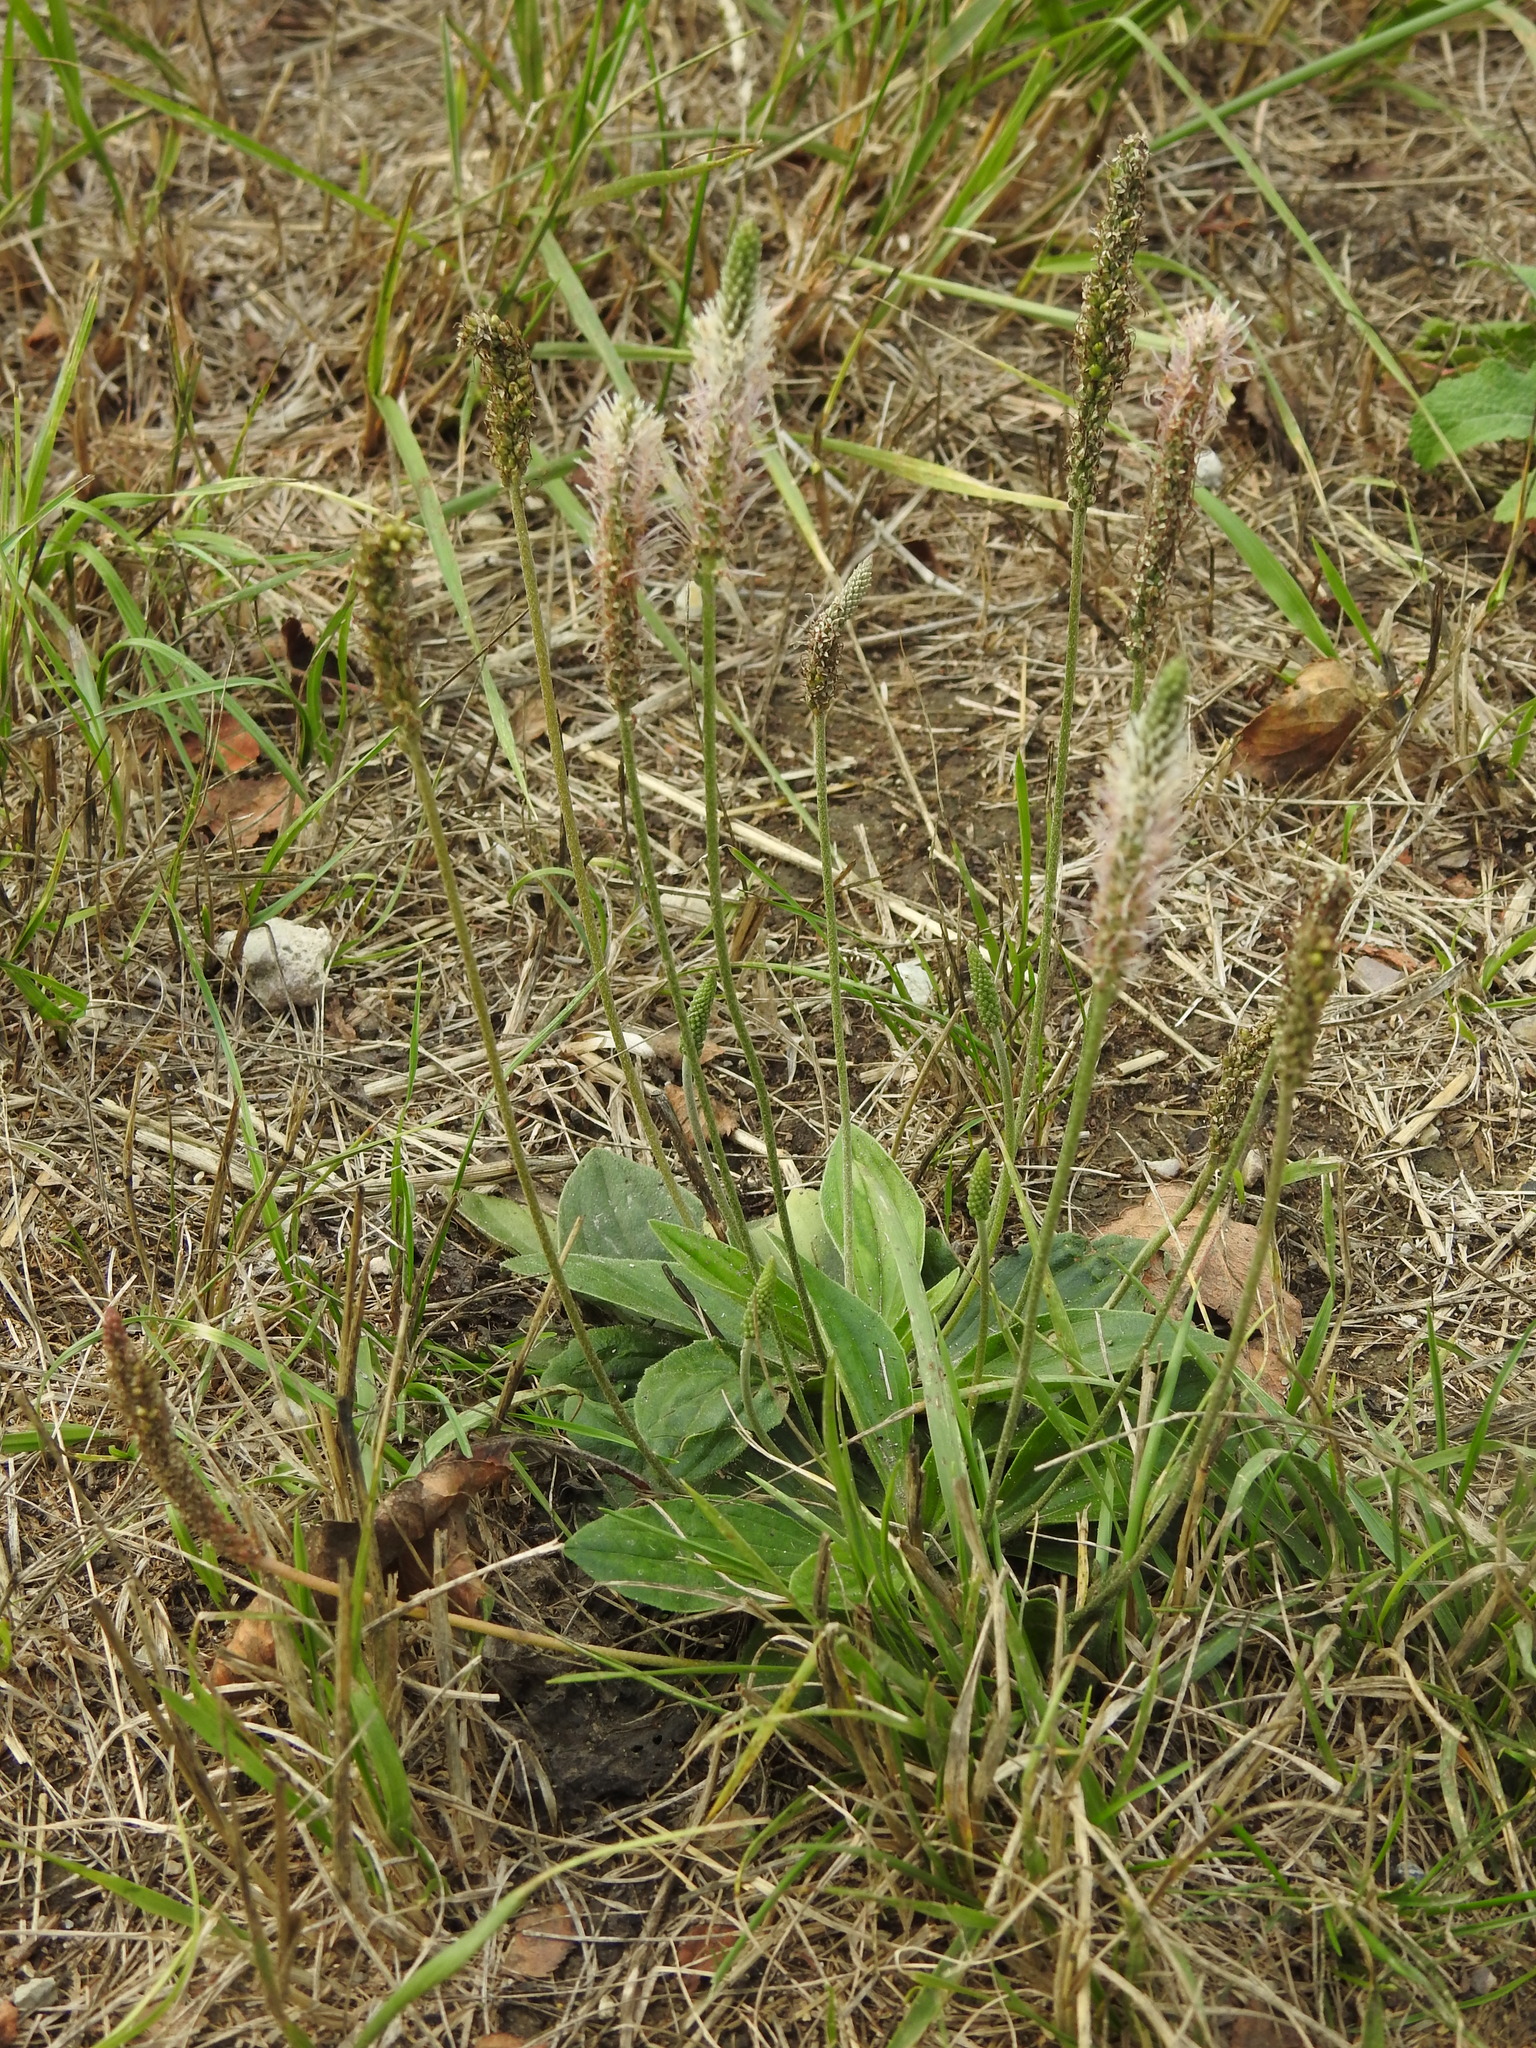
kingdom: Plantae
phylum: Tracheophyta
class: Magnoliopsida
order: Lamiales
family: Plantaginaceae
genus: Plantago
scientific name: Plantago media
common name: Hoary plantain
